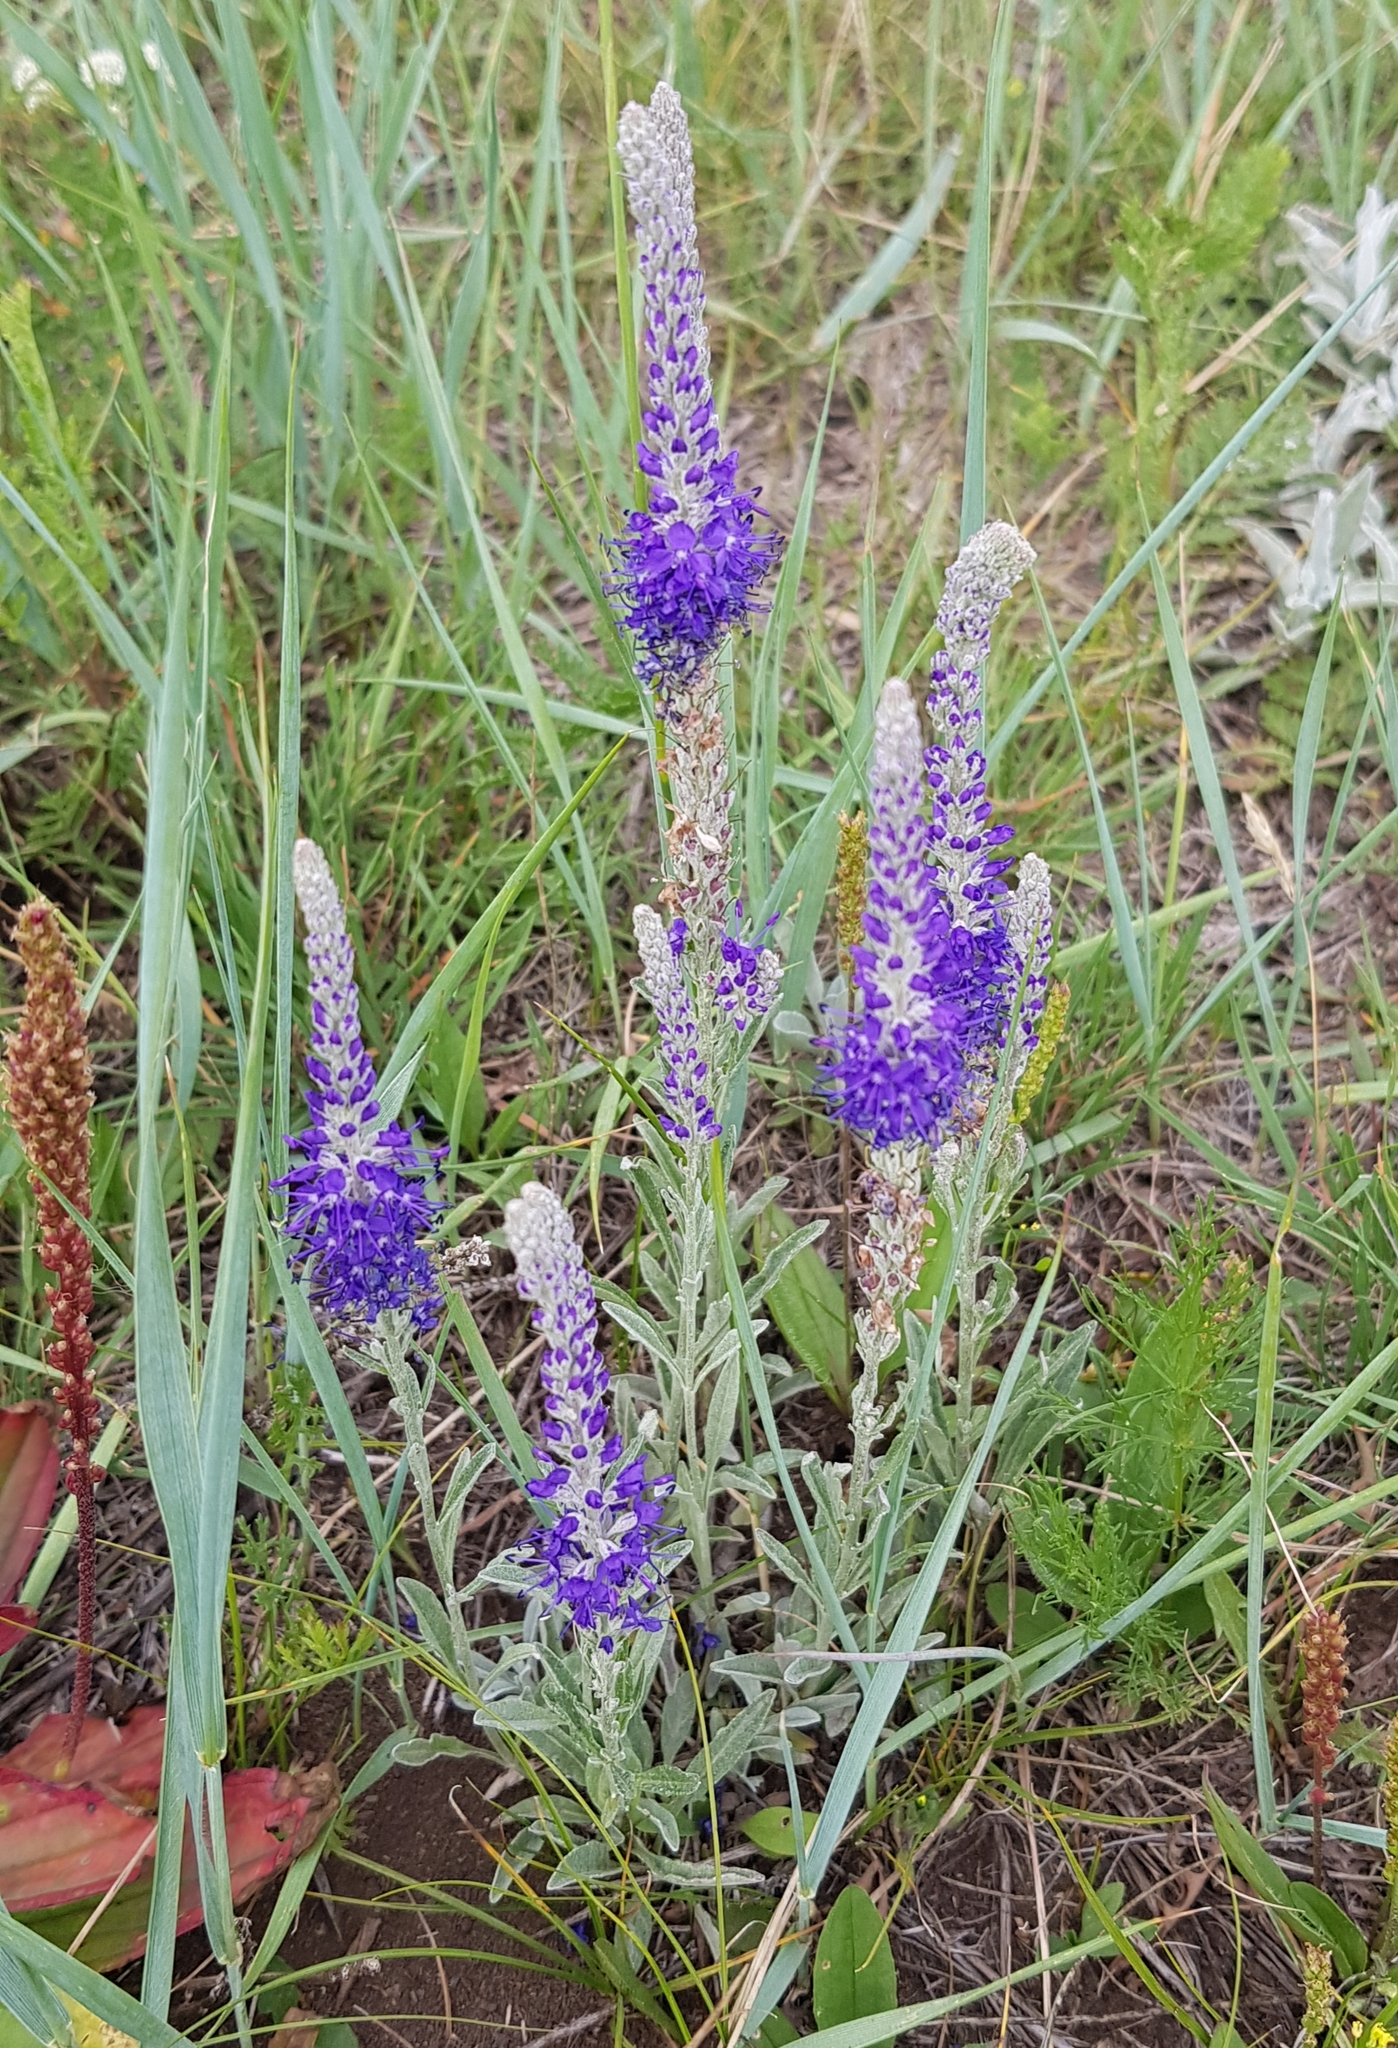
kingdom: Plantae
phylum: Tracheophyta
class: Magnoliopsida
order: Lamiales
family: Plantaginaceae
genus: Veronica
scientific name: Veronica incana
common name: Silver speedwell
